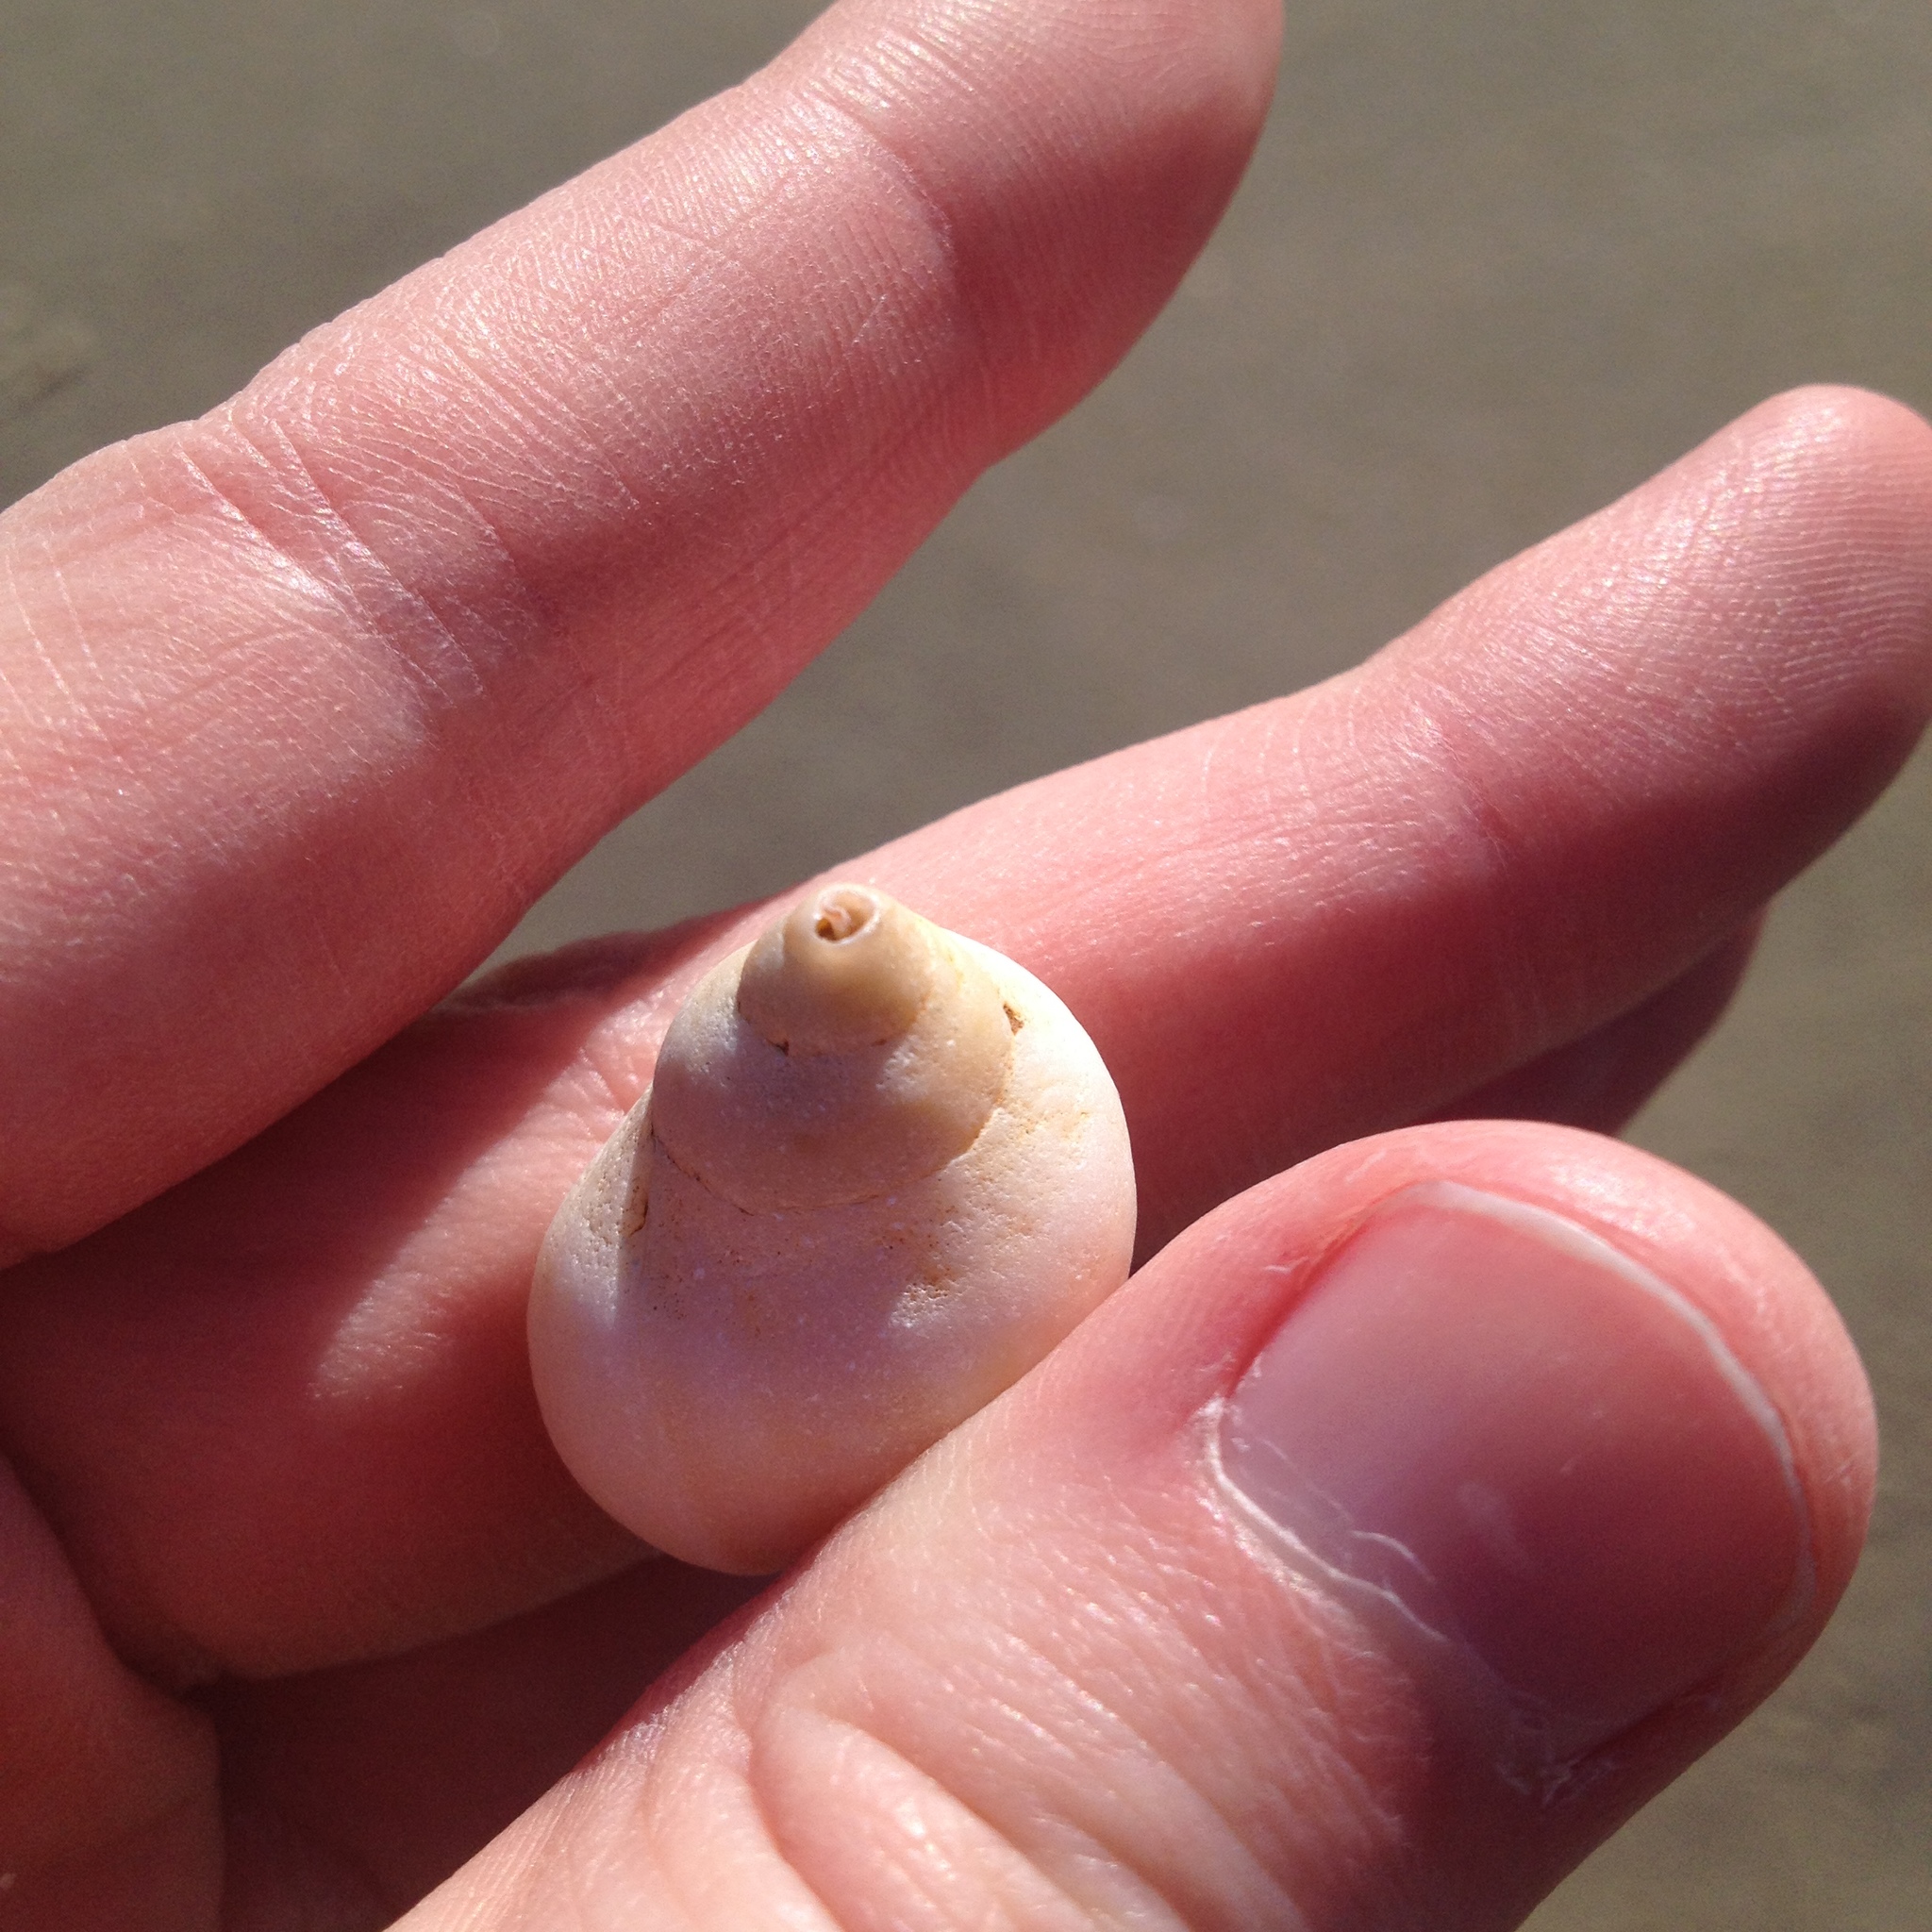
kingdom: Animalia
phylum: Mollusca
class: Gastropoda
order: Neogastropoda
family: Muricidae
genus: Nucella
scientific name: Nucella lapillus
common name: Dog whelk
